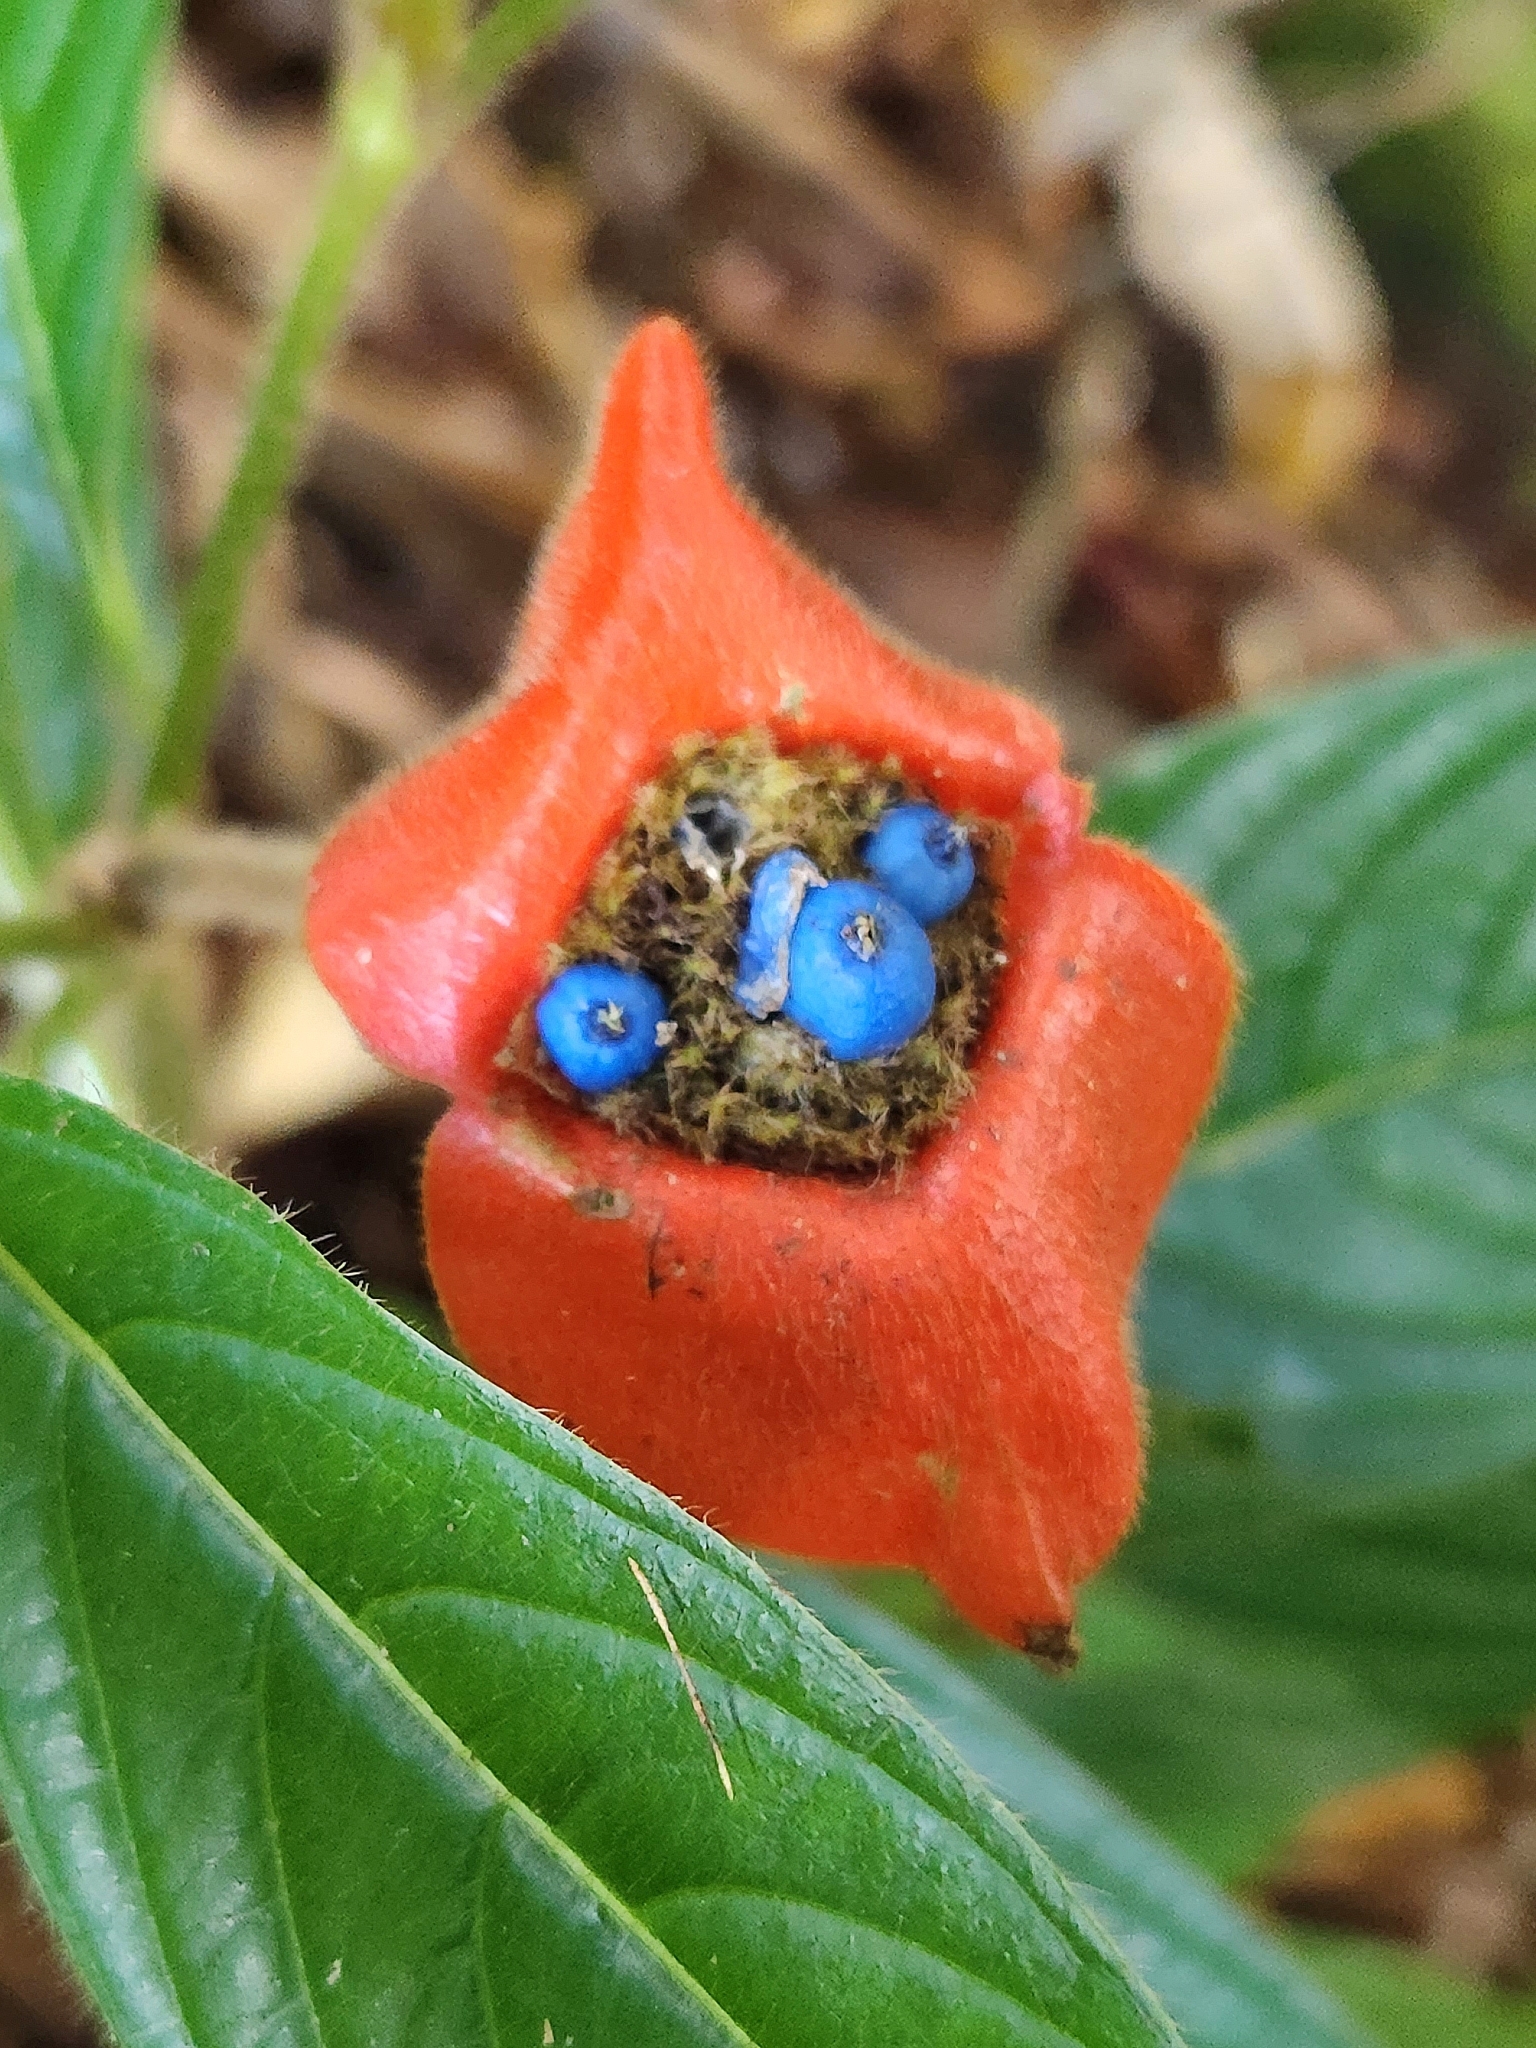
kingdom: Plantae
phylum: Tracheophyta
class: Magnoliopsida
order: Gentianales
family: Rubiaceae
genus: Palicourea
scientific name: Palicourea tomentosa
